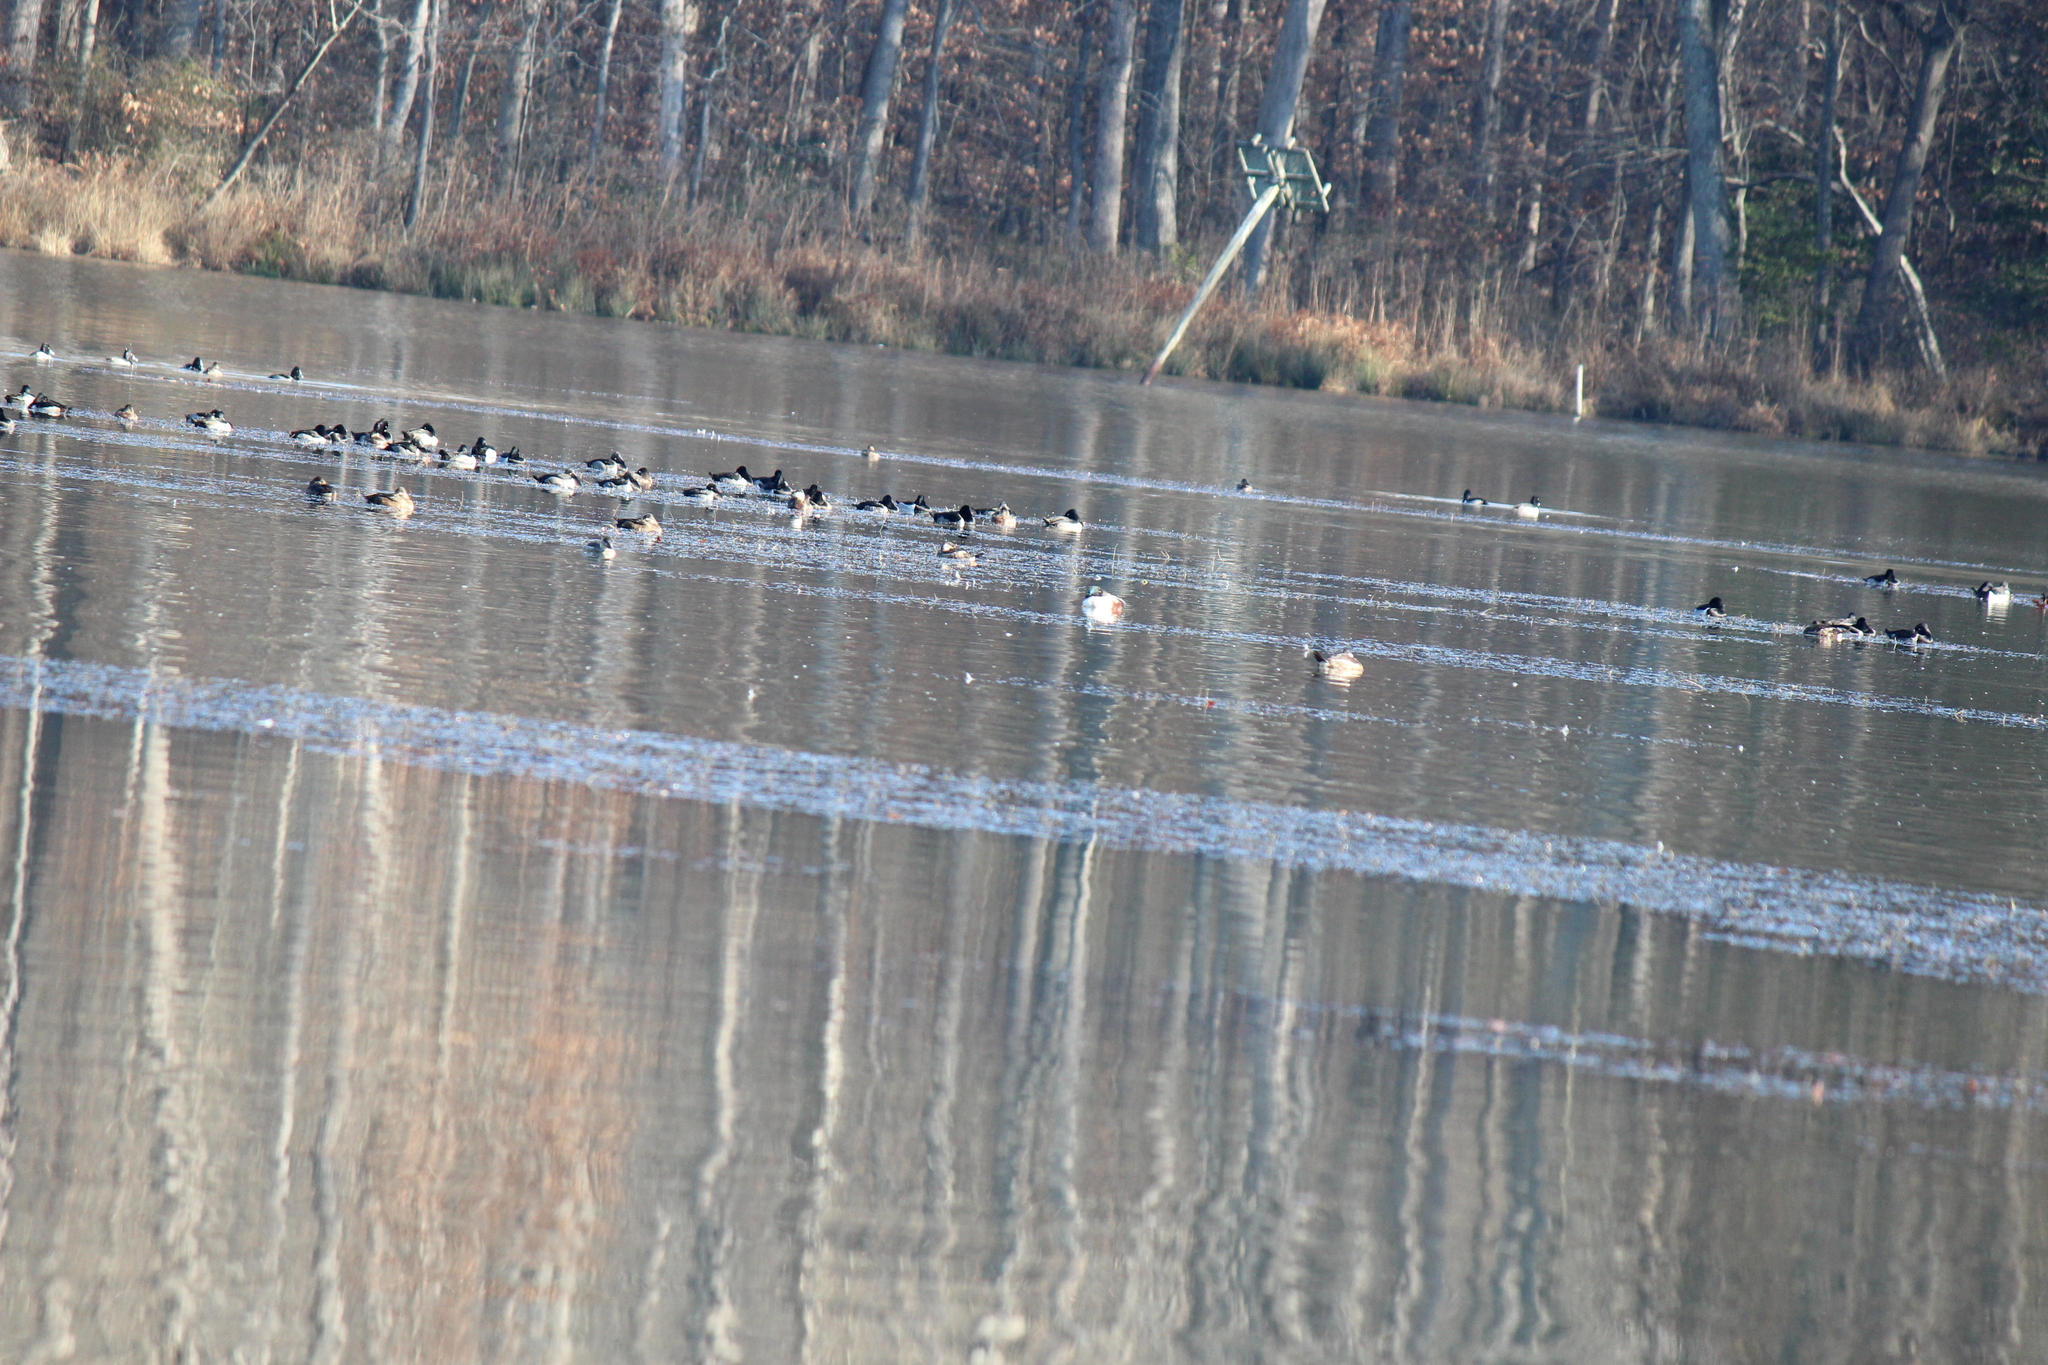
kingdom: Animalia
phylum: Chordata
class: Aves
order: Anseriformes
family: Anatidae
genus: Spatula
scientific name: Spatula clypeata
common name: Northern shoveler
